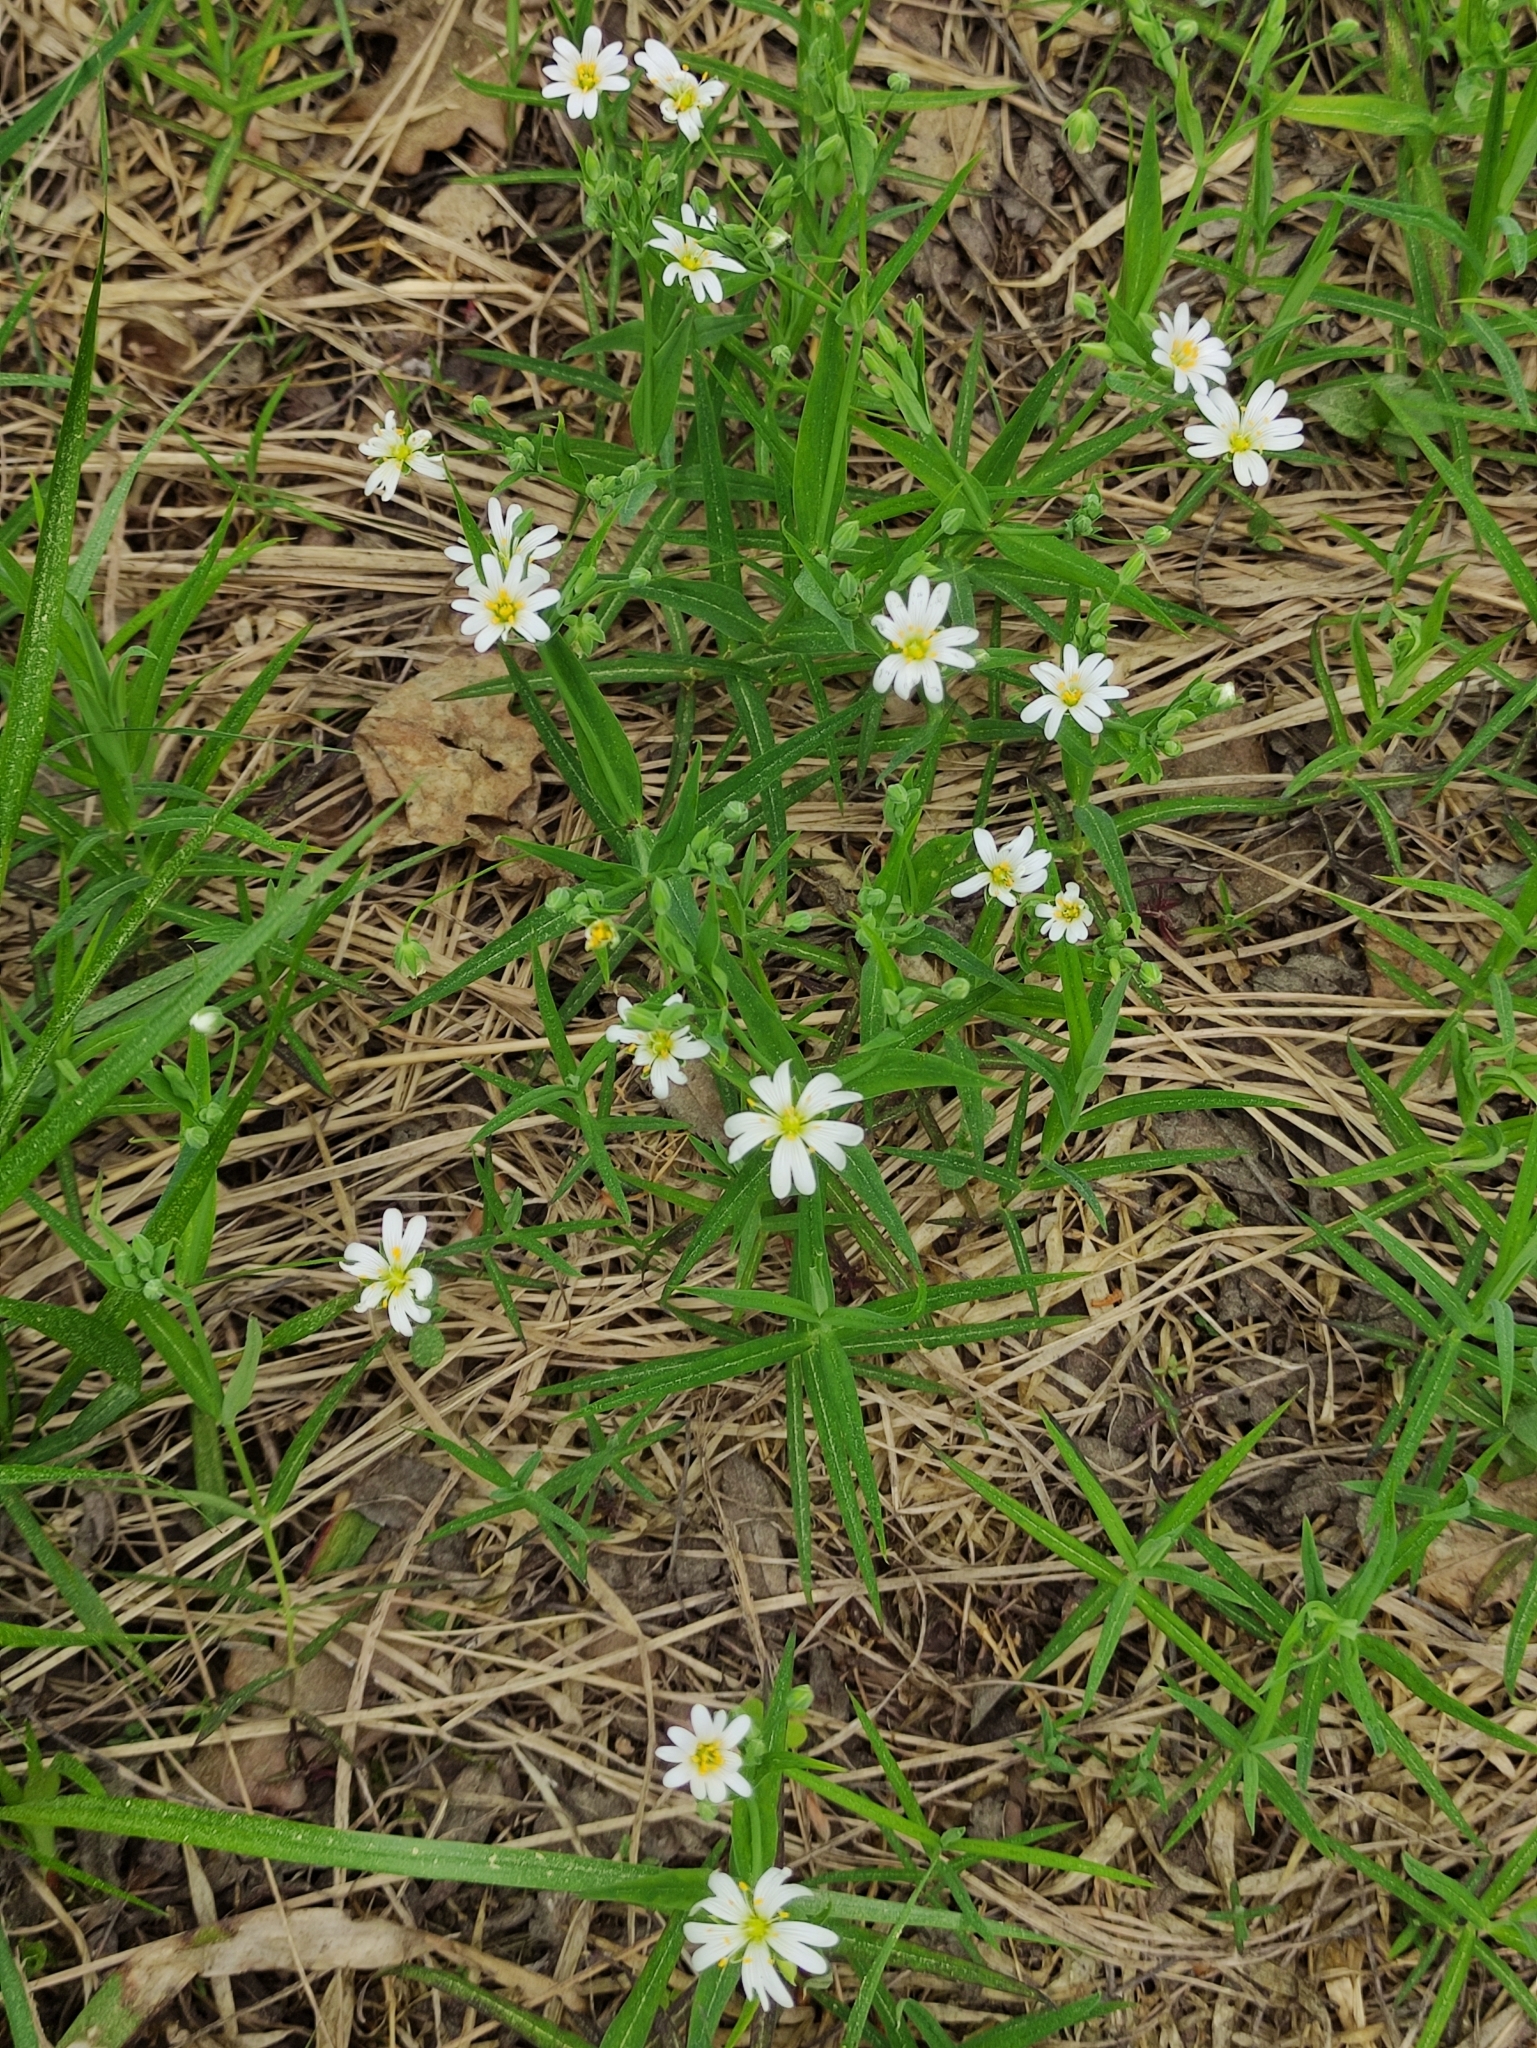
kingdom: Plantae
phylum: Tracheophyta
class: Magnoliopsida
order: Caryophyllales
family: Caryophyllaceae
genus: Rabelera
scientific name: Rabelera holostea
